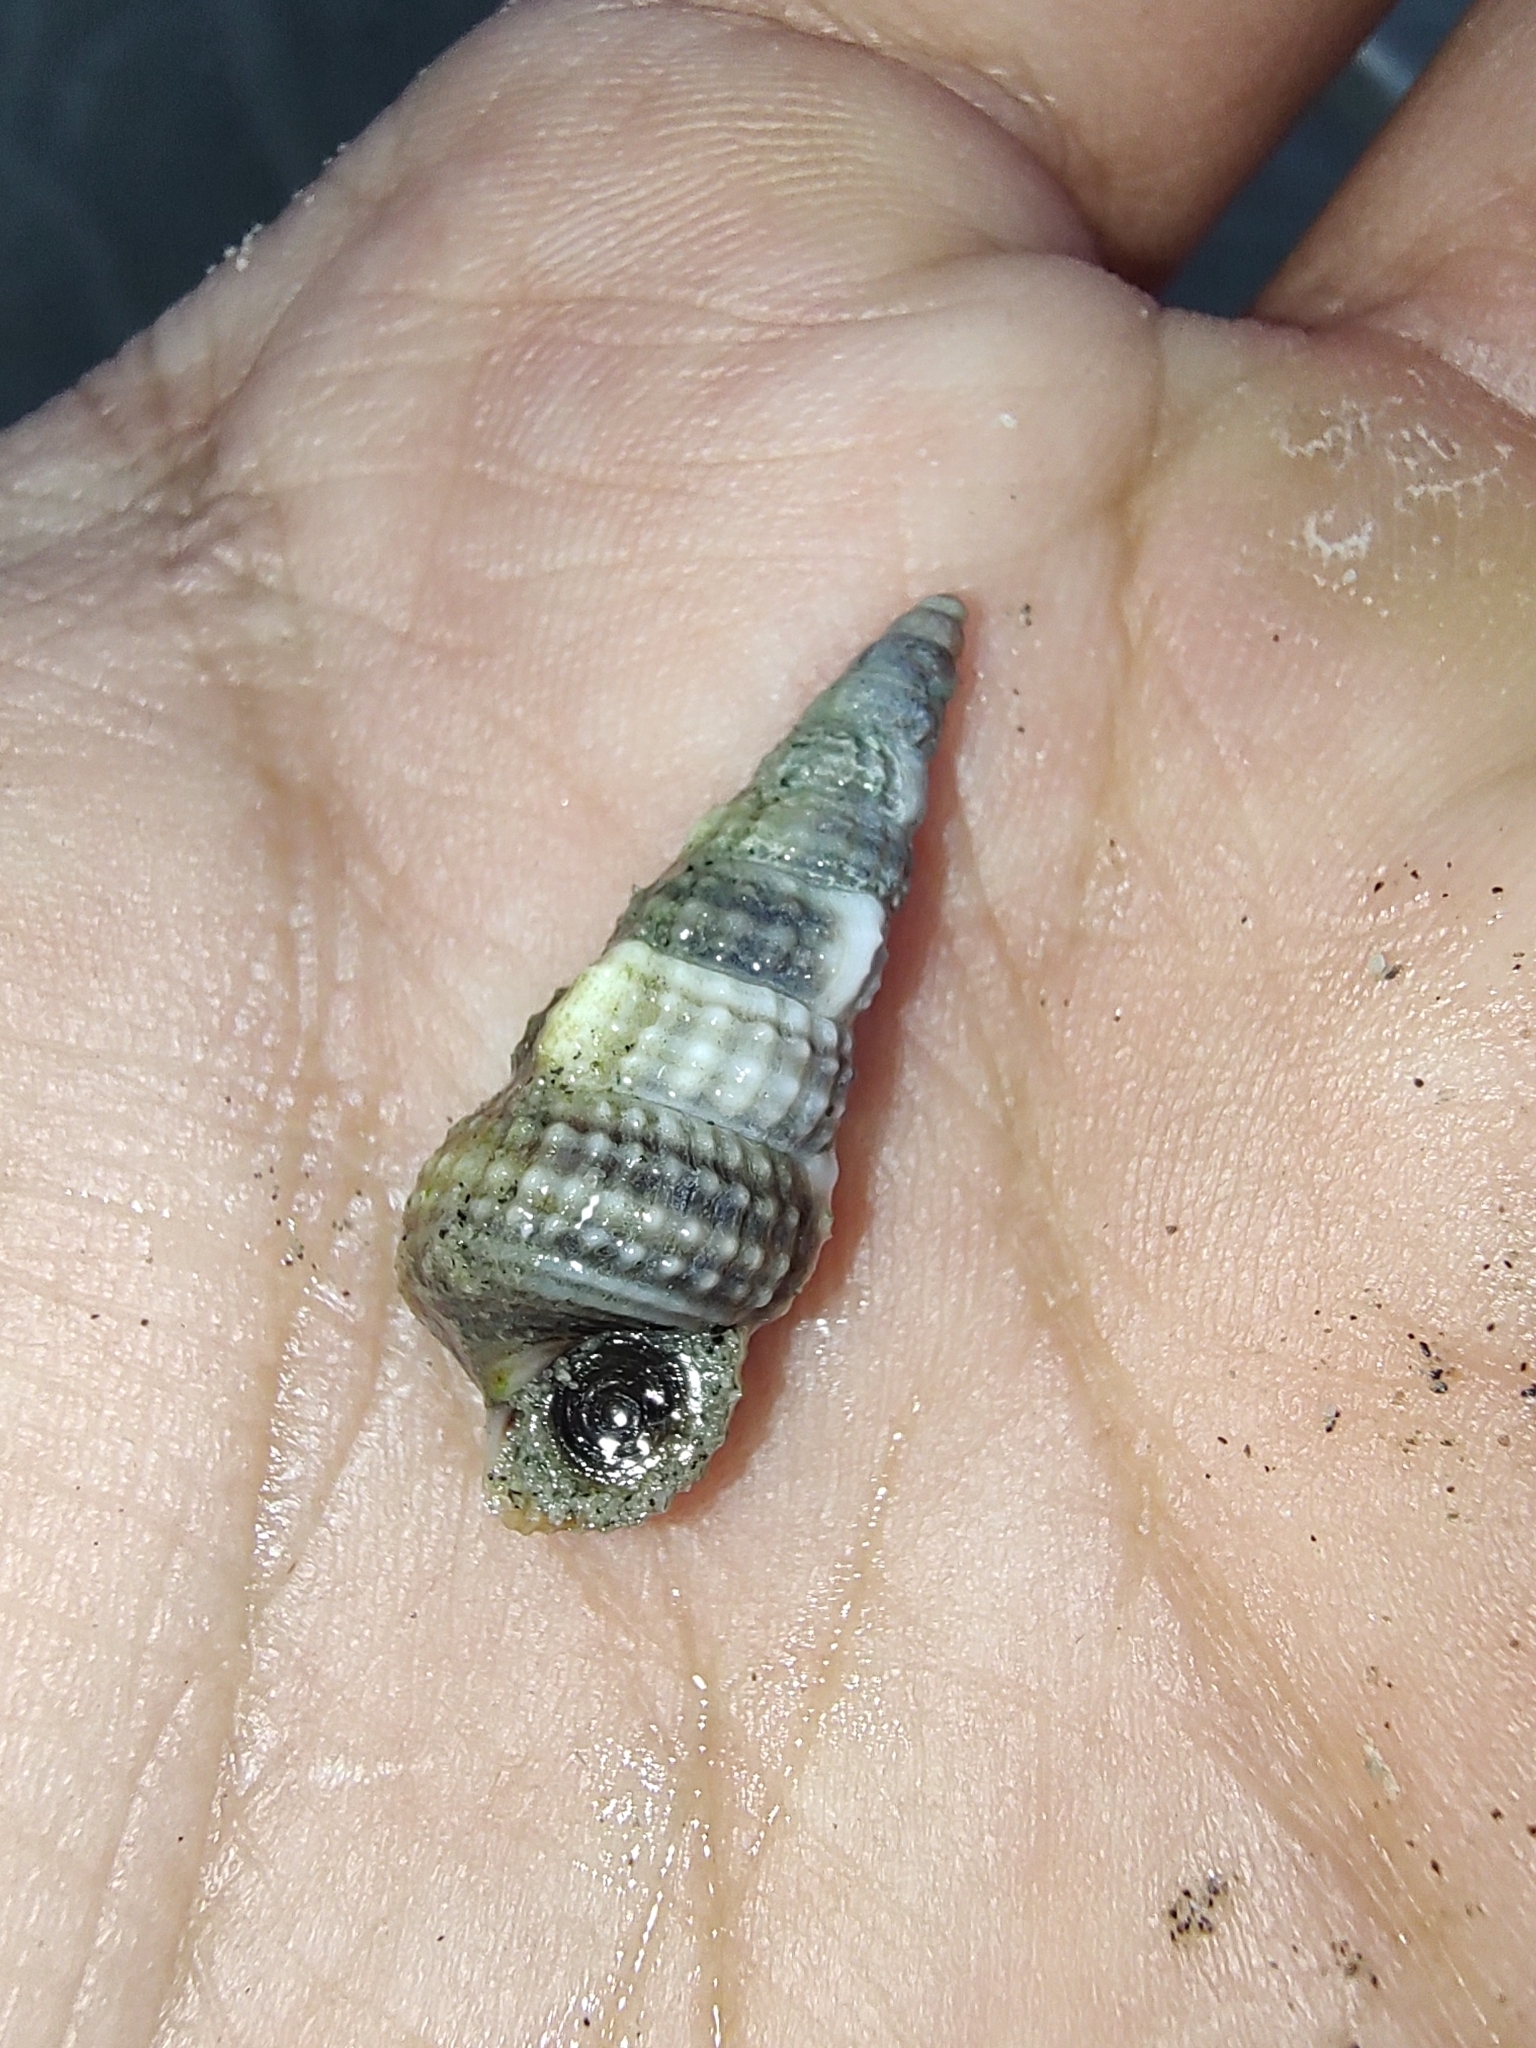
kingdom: Animalia
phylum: Mollusca
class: Gastropoda
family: Potamididae
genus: Cerithideopsis
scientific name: Cerithideopsis californica
